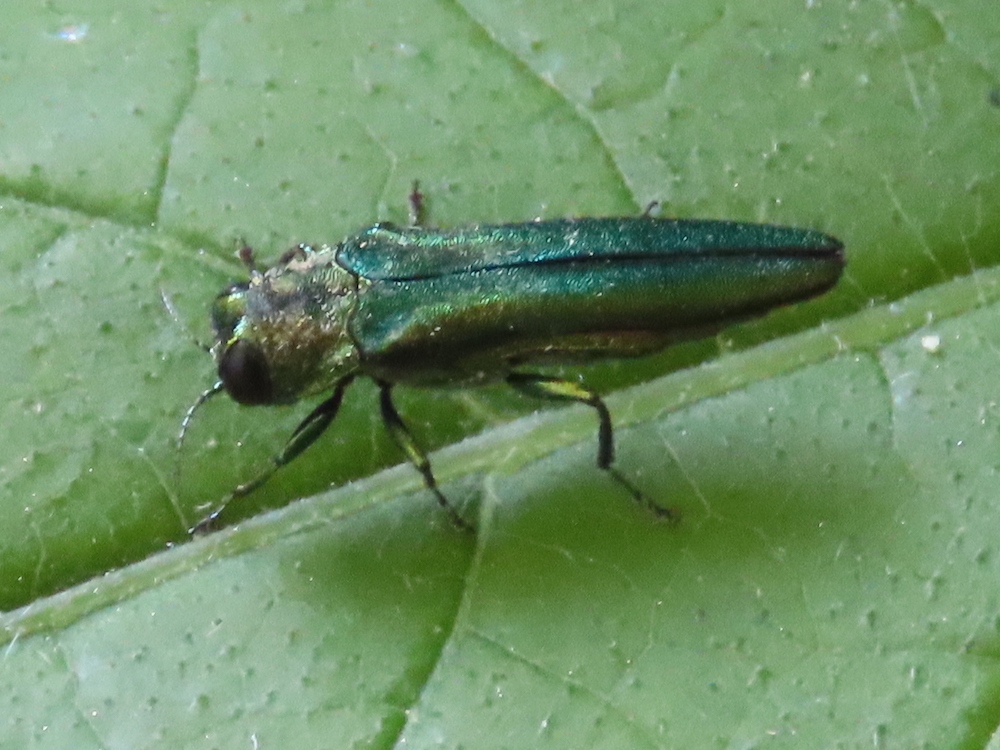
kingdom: Animalia
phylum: Arthropoda
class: Insecta
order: Coleoptera
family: Buprestidae
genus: Agrilus
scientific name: Agrilus planipennis
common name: Emerald ash borer
